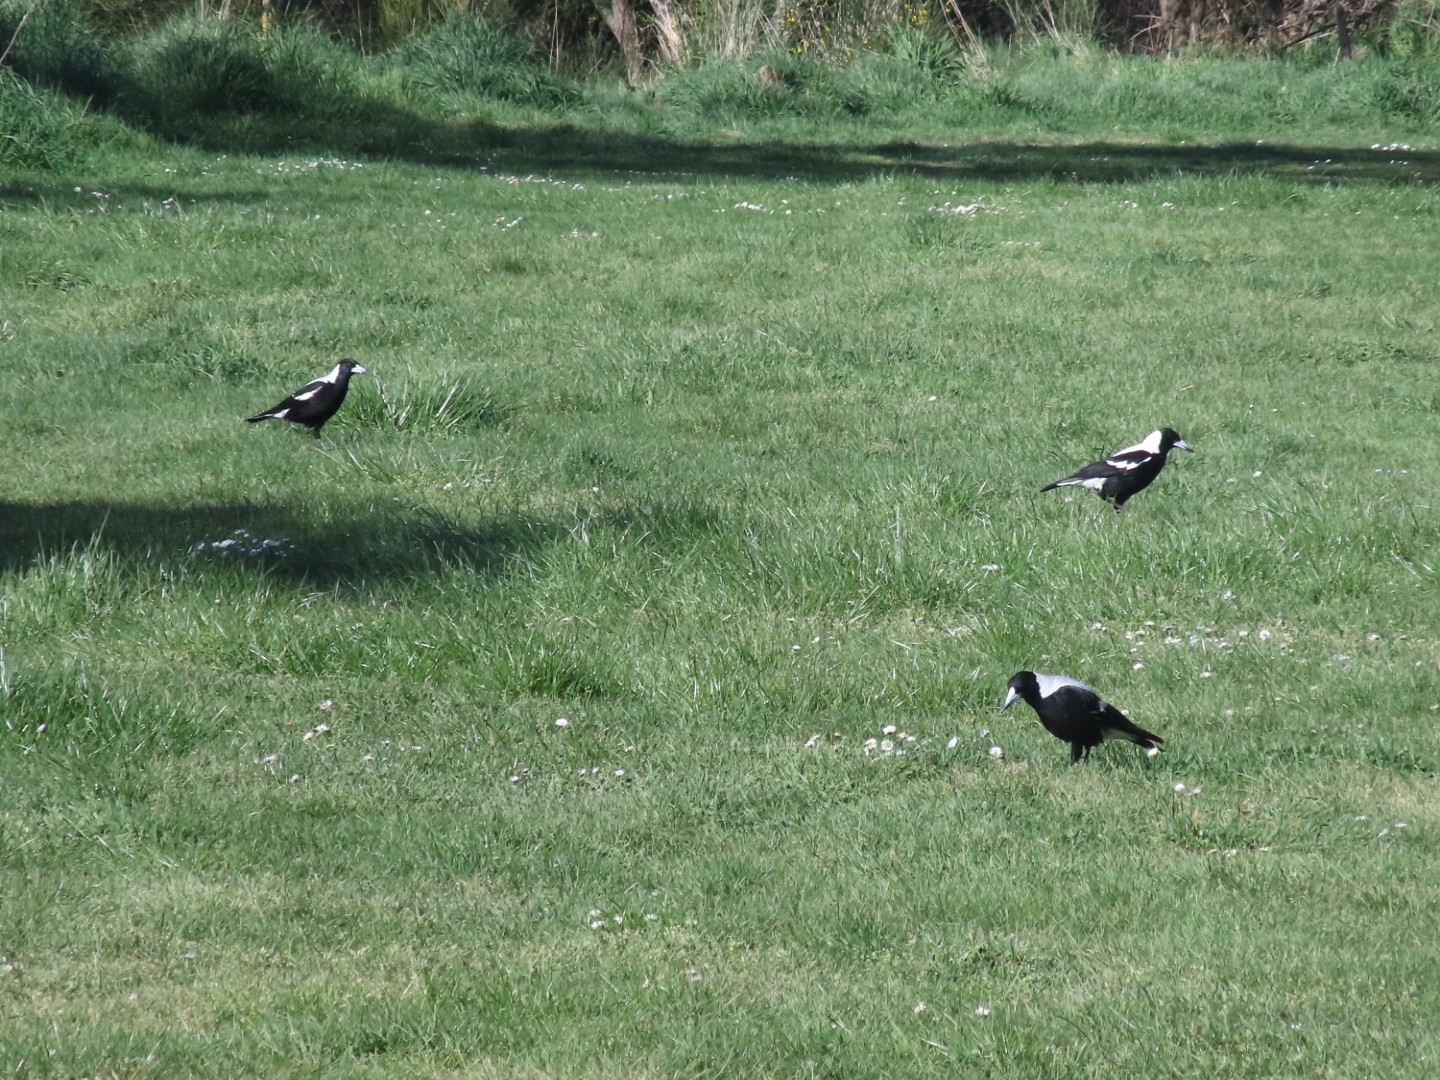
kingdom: Animalia
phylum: Chordata
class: Aves
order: Passeriformes
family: Cracticidae
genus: Gymnorhina
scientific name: Gymnorhina tibicen
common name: Australian magpie
